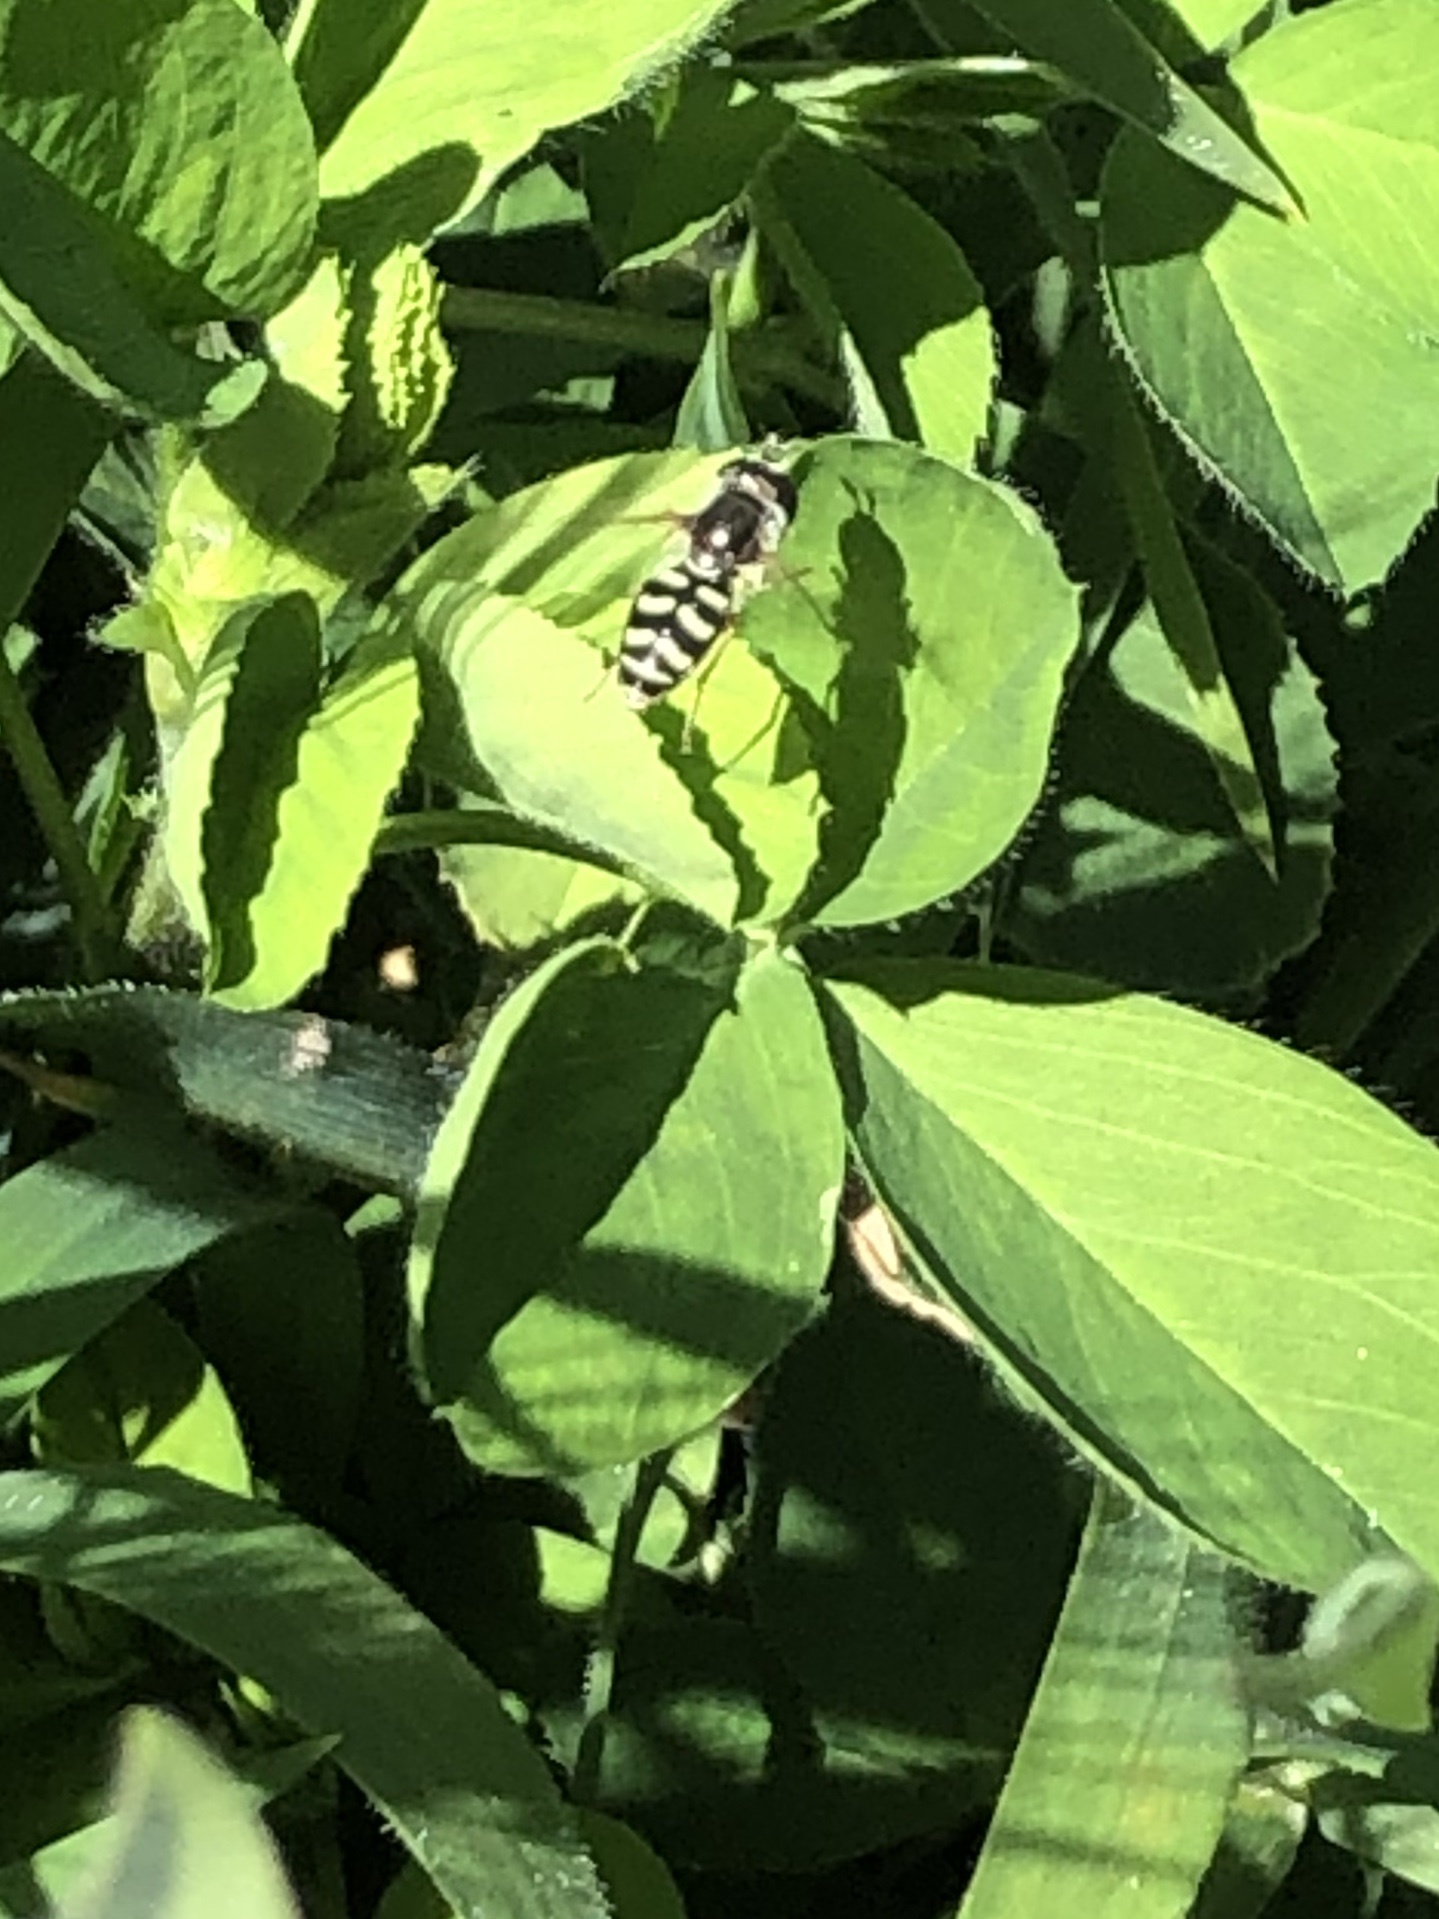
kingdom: Animalia
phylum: Arthropoda
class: Insecta
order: Diptera
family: Syrphidae
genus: Eupeodes
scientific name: Eupeodes volucris
